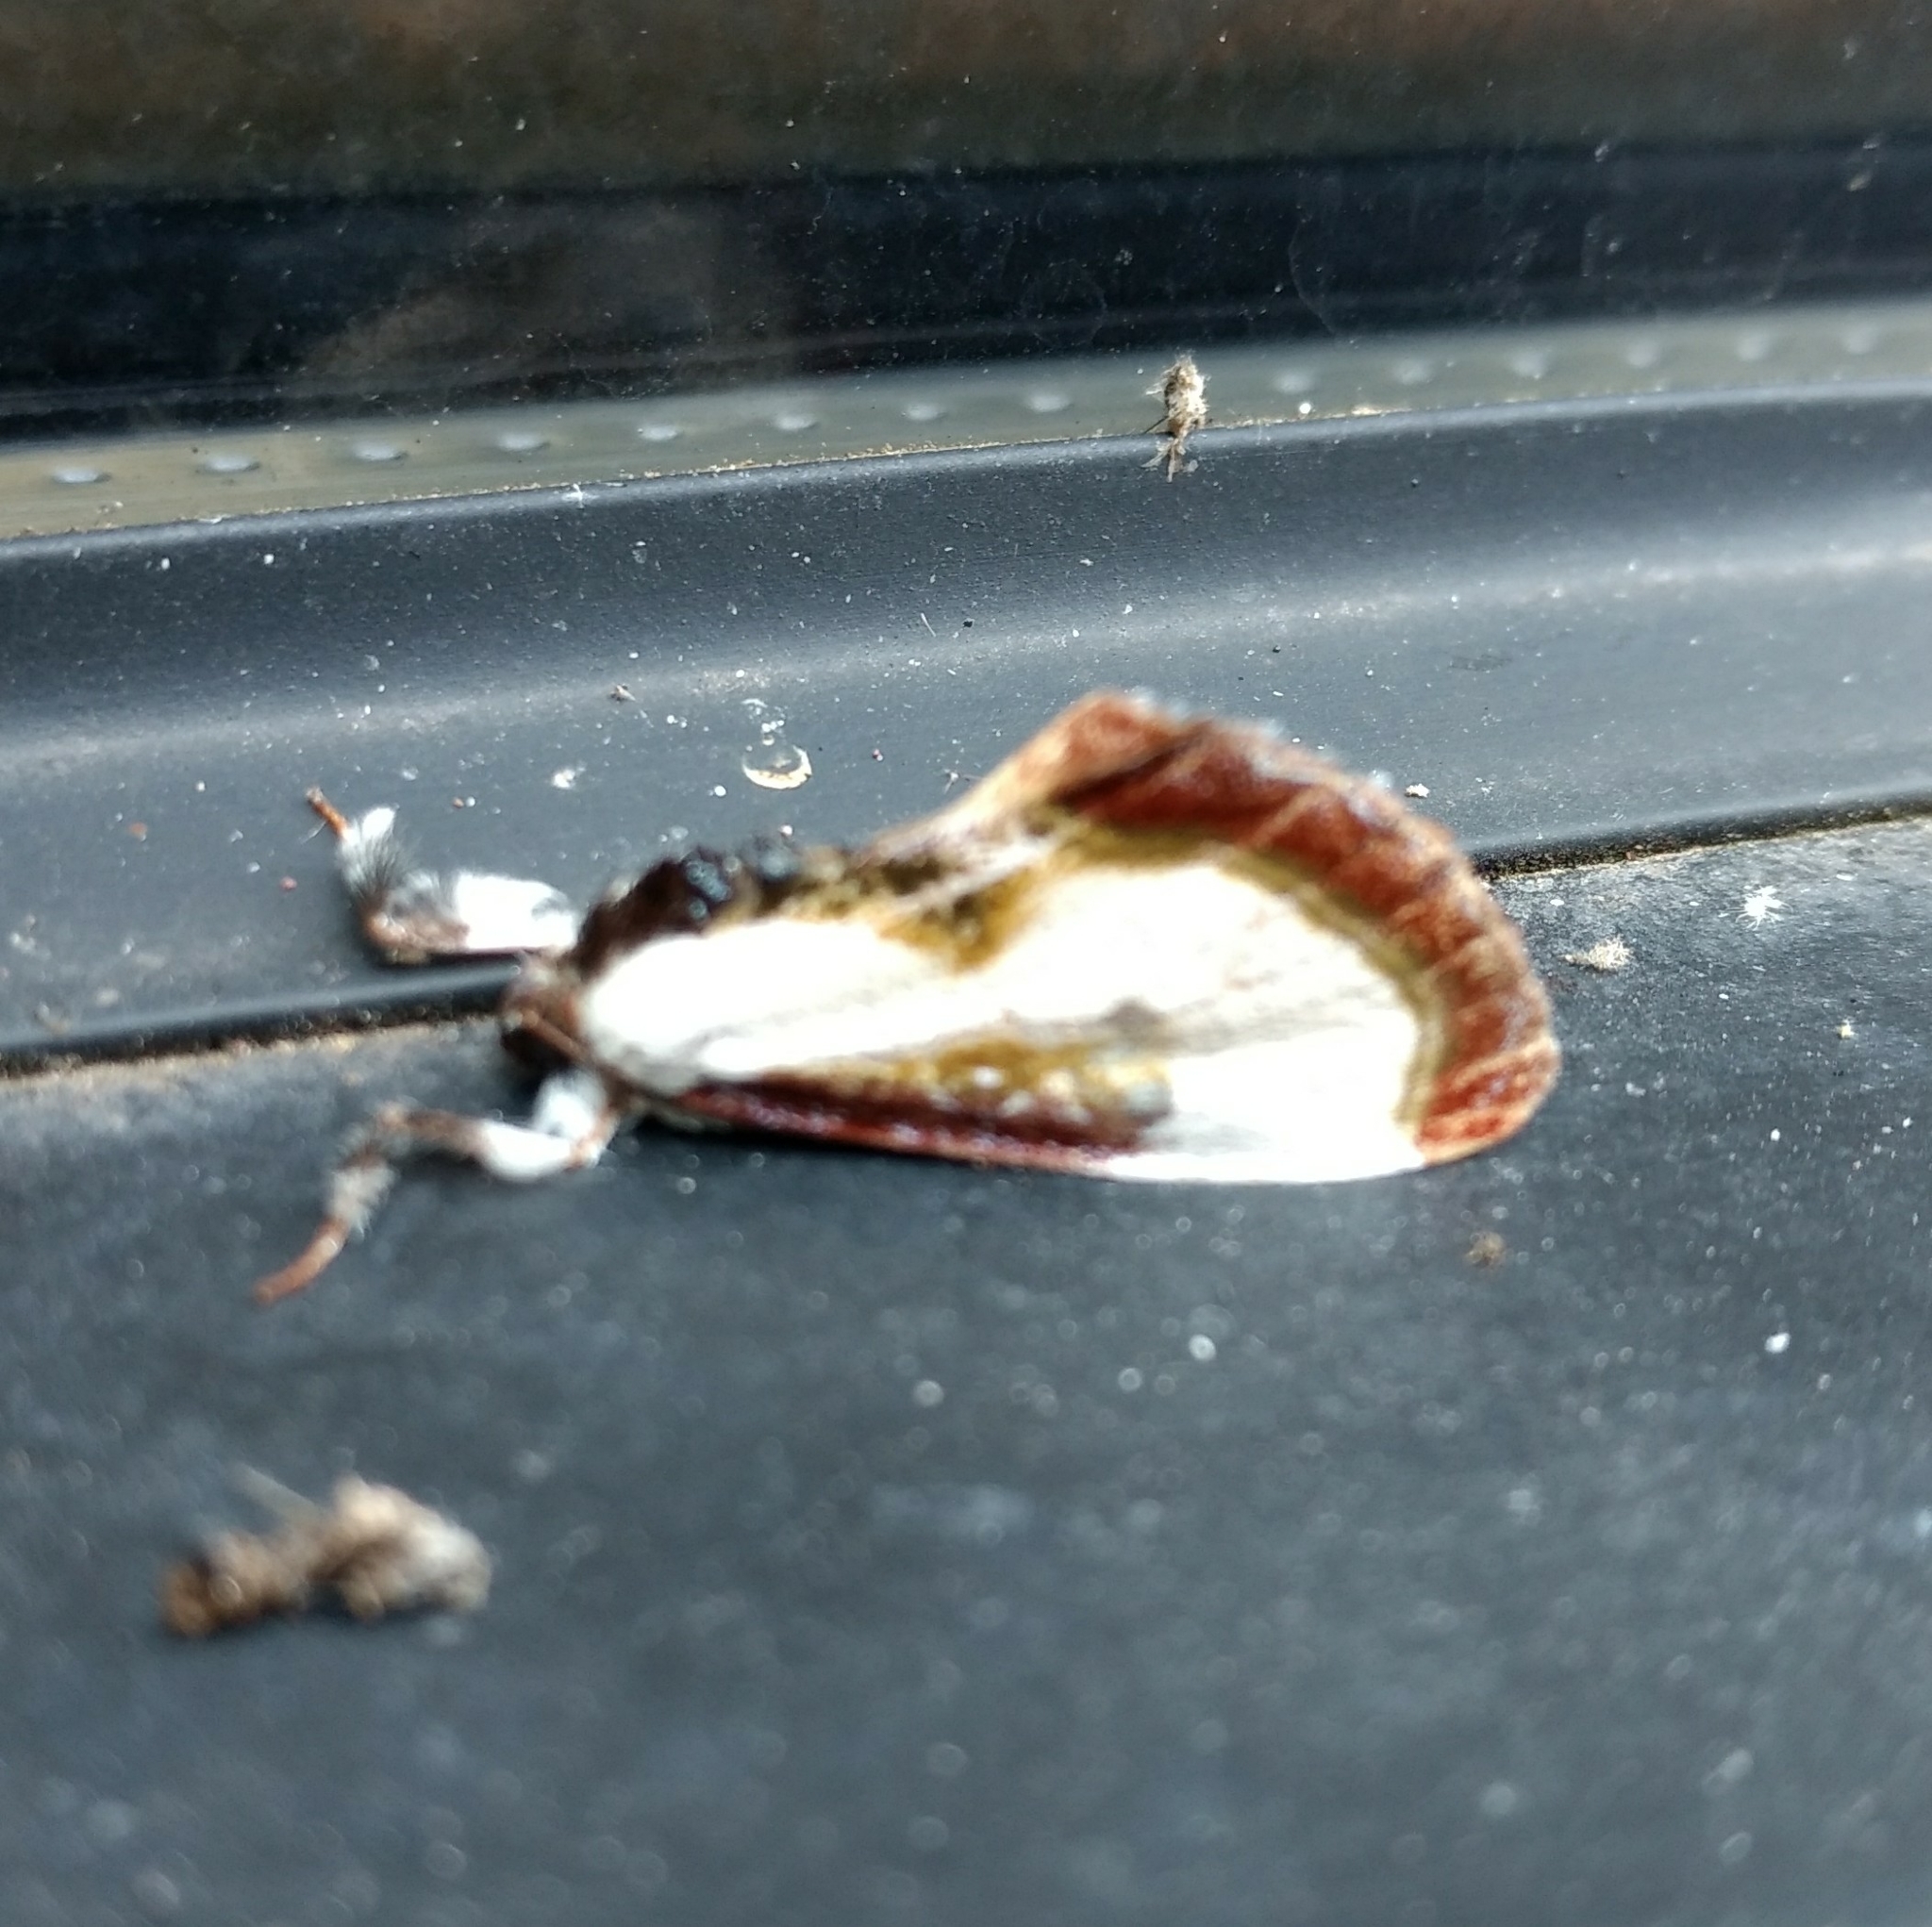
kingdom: Animalia
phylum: Arthropoda
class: Insecta
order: Lepidoptera
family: Noctuidae
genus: Eudryas
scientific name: Eudryas grata
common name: Beautiful wood-nymph
